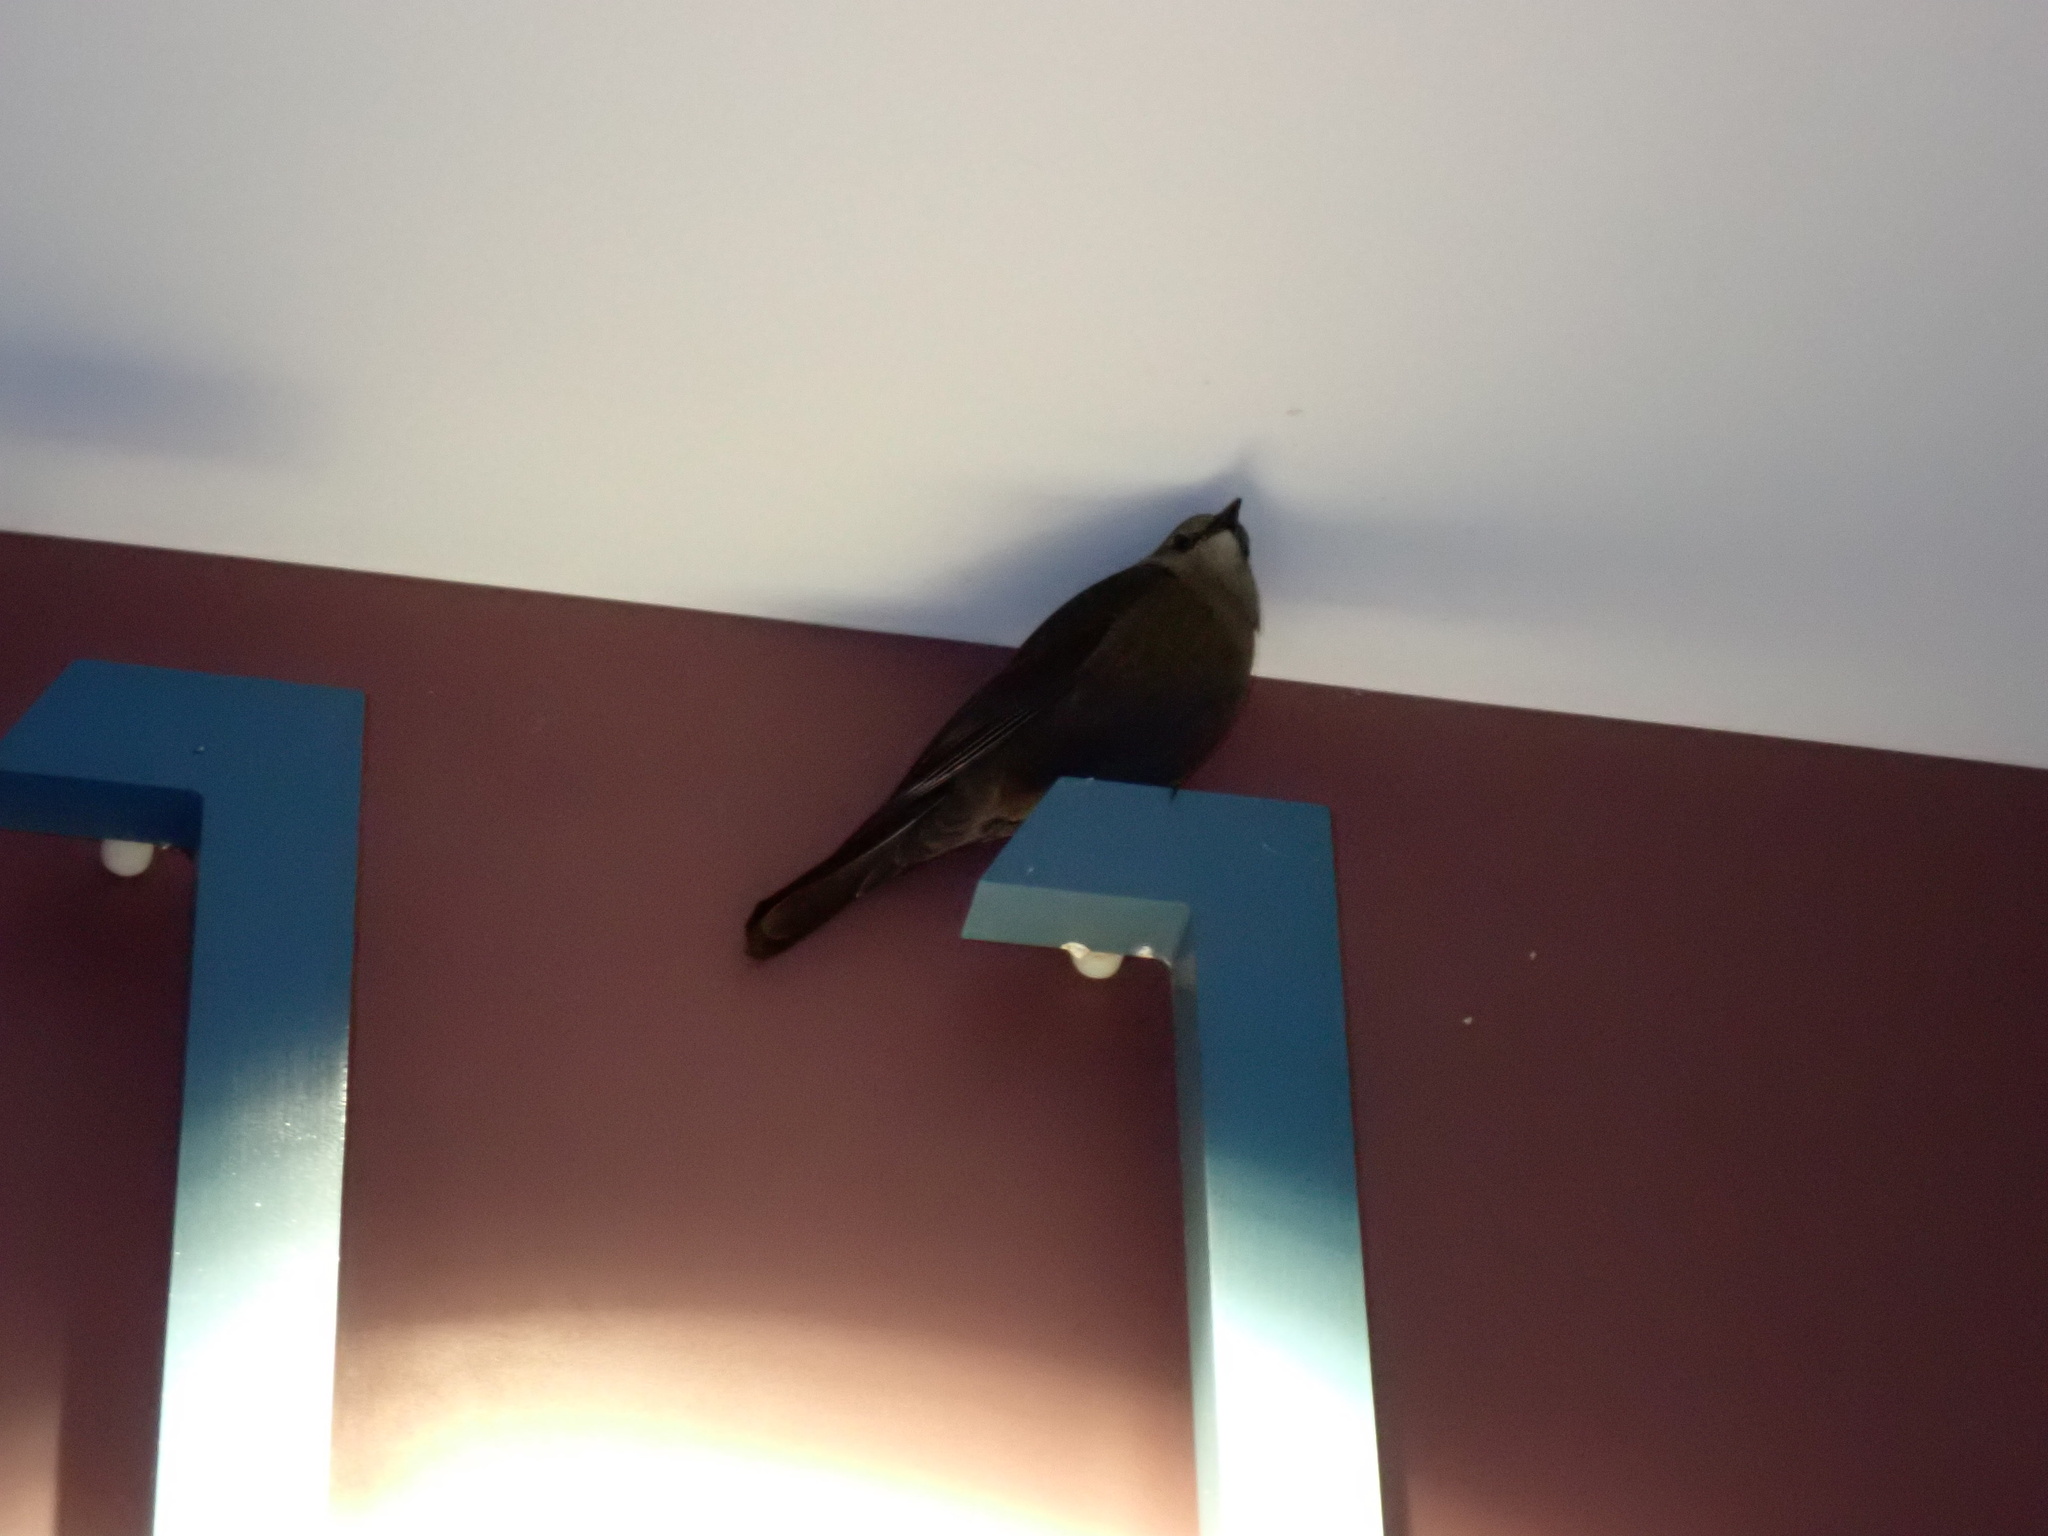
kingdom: Animalia
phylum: Chordata
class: Aves
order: Passeriformes
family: Icteridae
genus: Euphagus
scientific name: Euphagus cyanocephalus
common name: Brewer's blackbird
